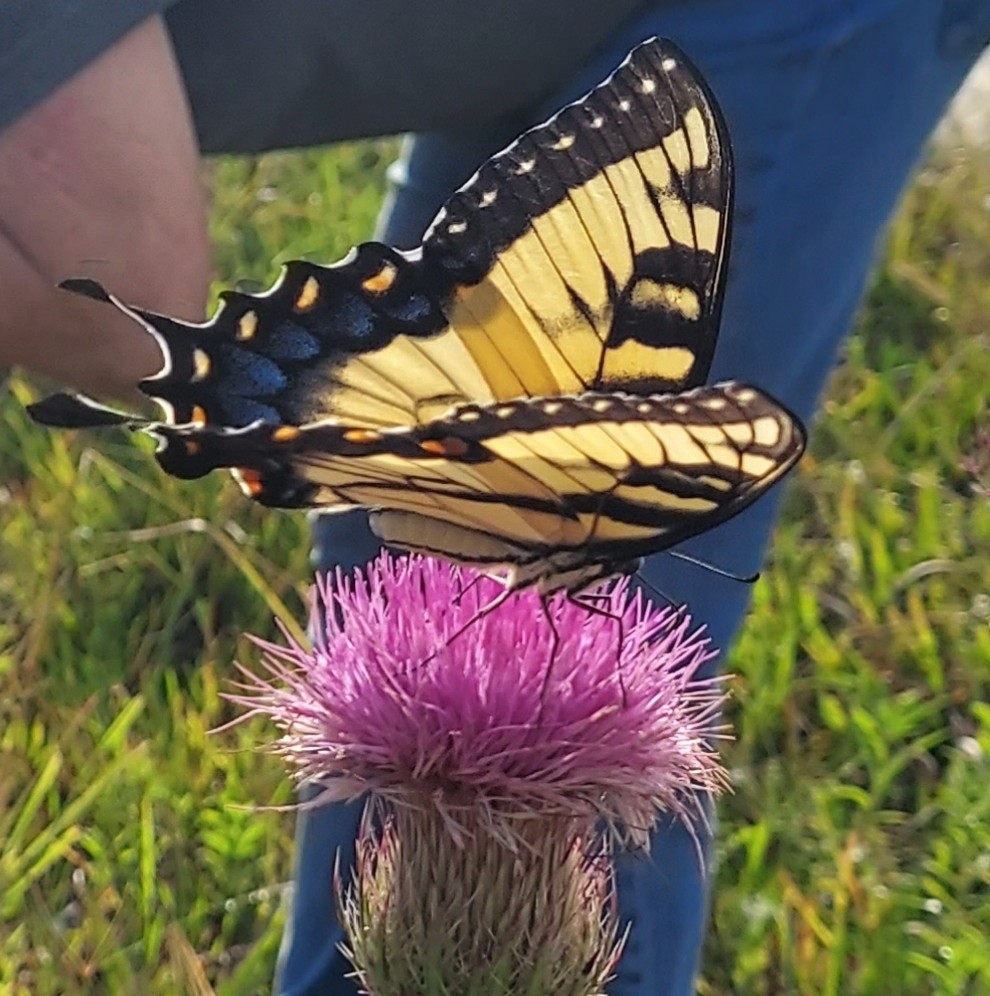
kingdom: Animalia
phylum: Arthropoda
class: Insecta
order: Lepidoptera
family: Papilionidae
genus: Papilio
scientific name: Papilio glaucus
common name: Tiger swallowtail
